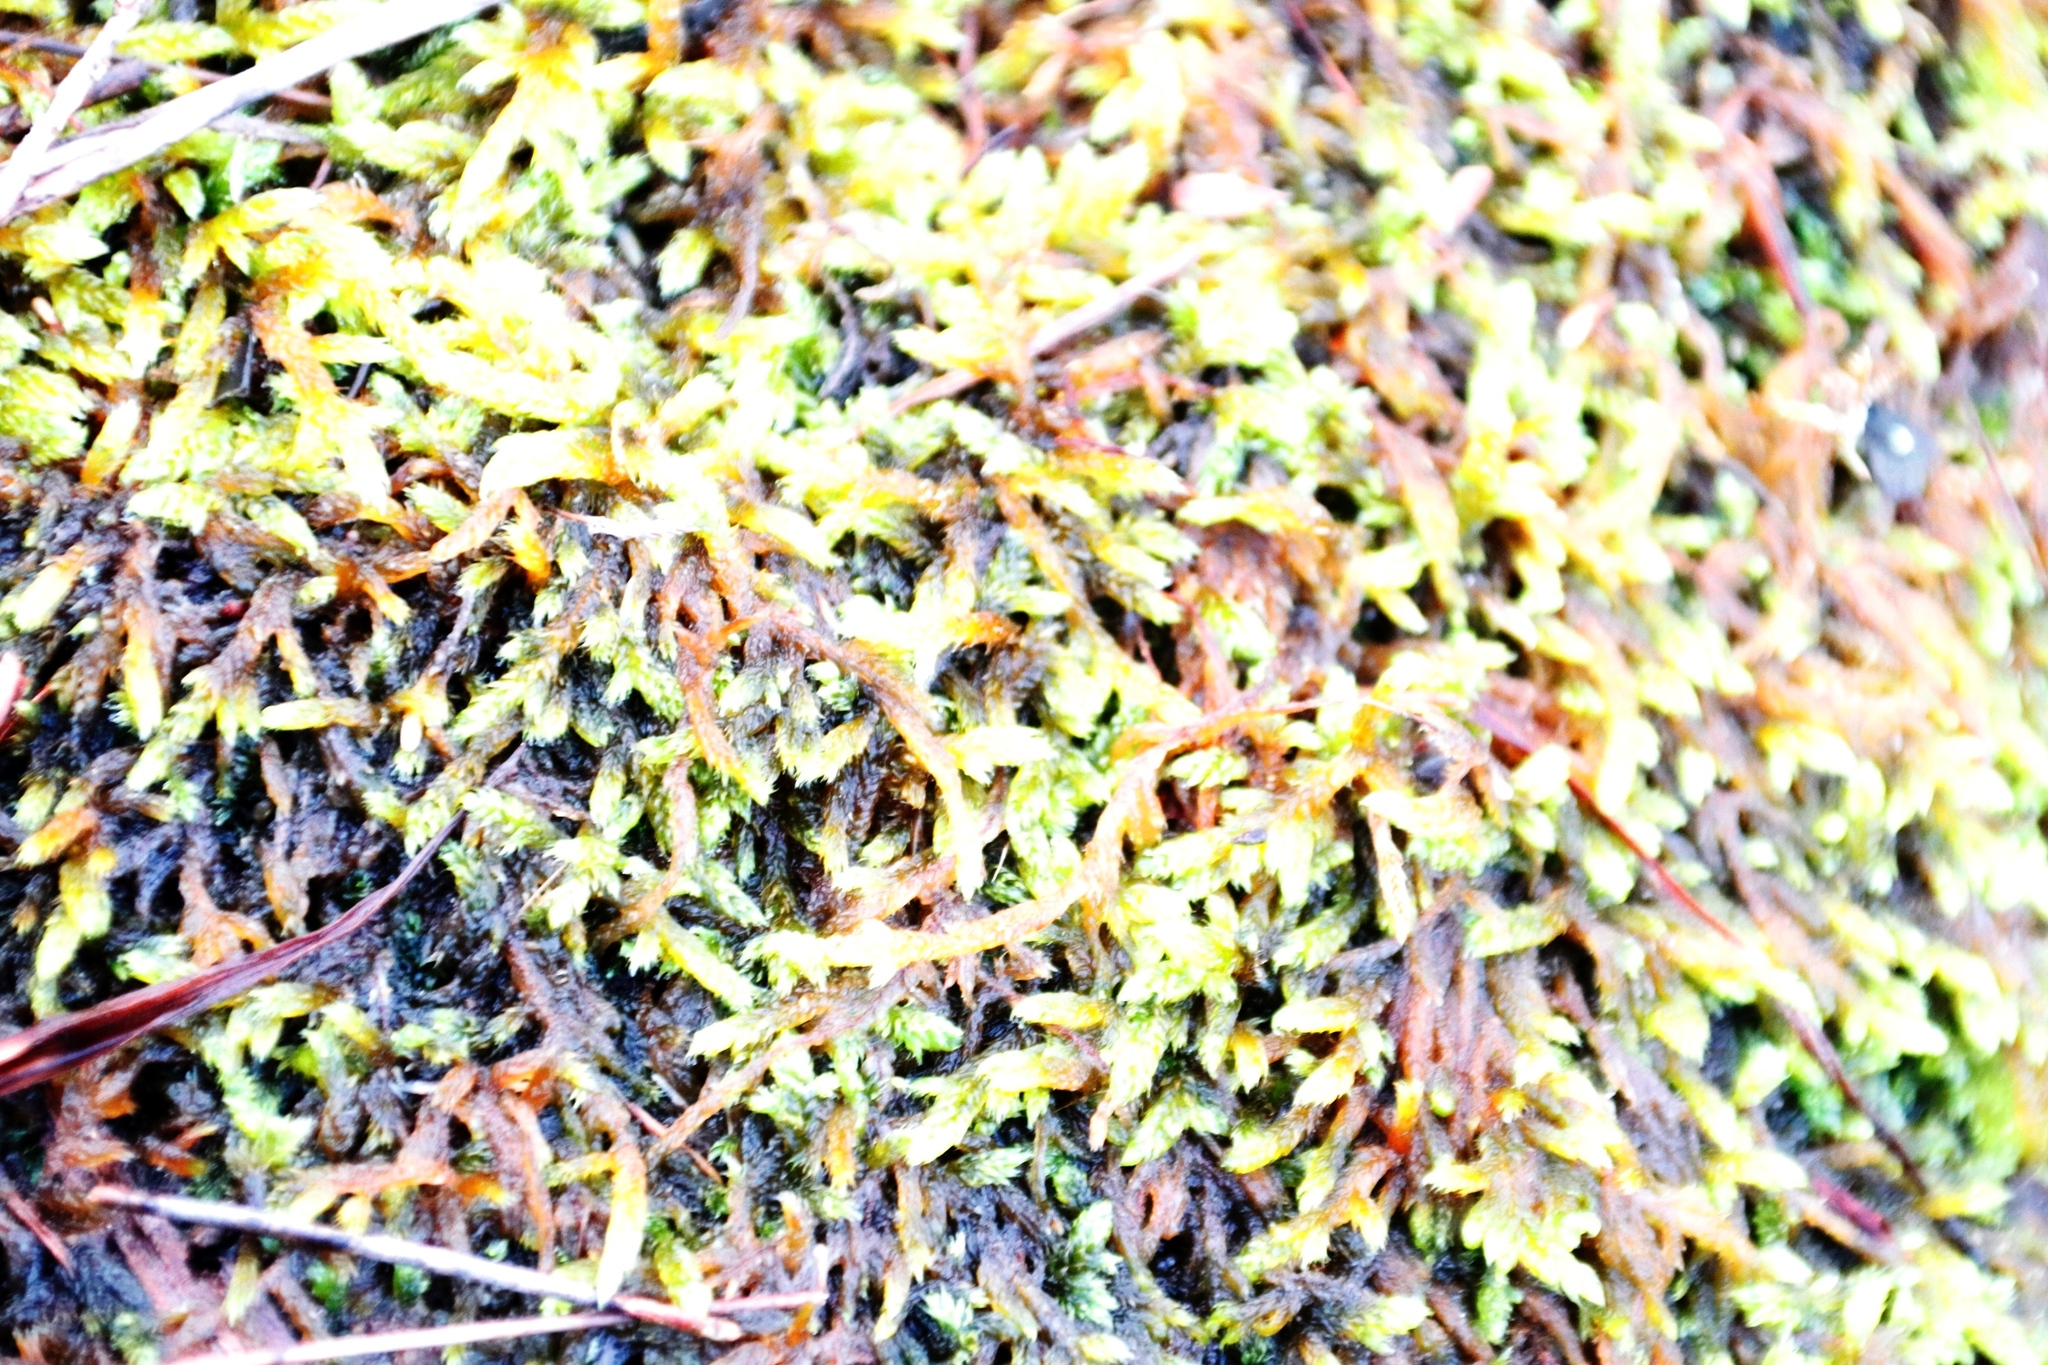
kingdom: Plantae
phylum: Bryophyta
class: Bryopsida
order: Hypnales
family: Hypnaceae
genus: Hypnum
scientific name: Hypnum cupressiforme
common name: Cypress-leaved plait-moss
